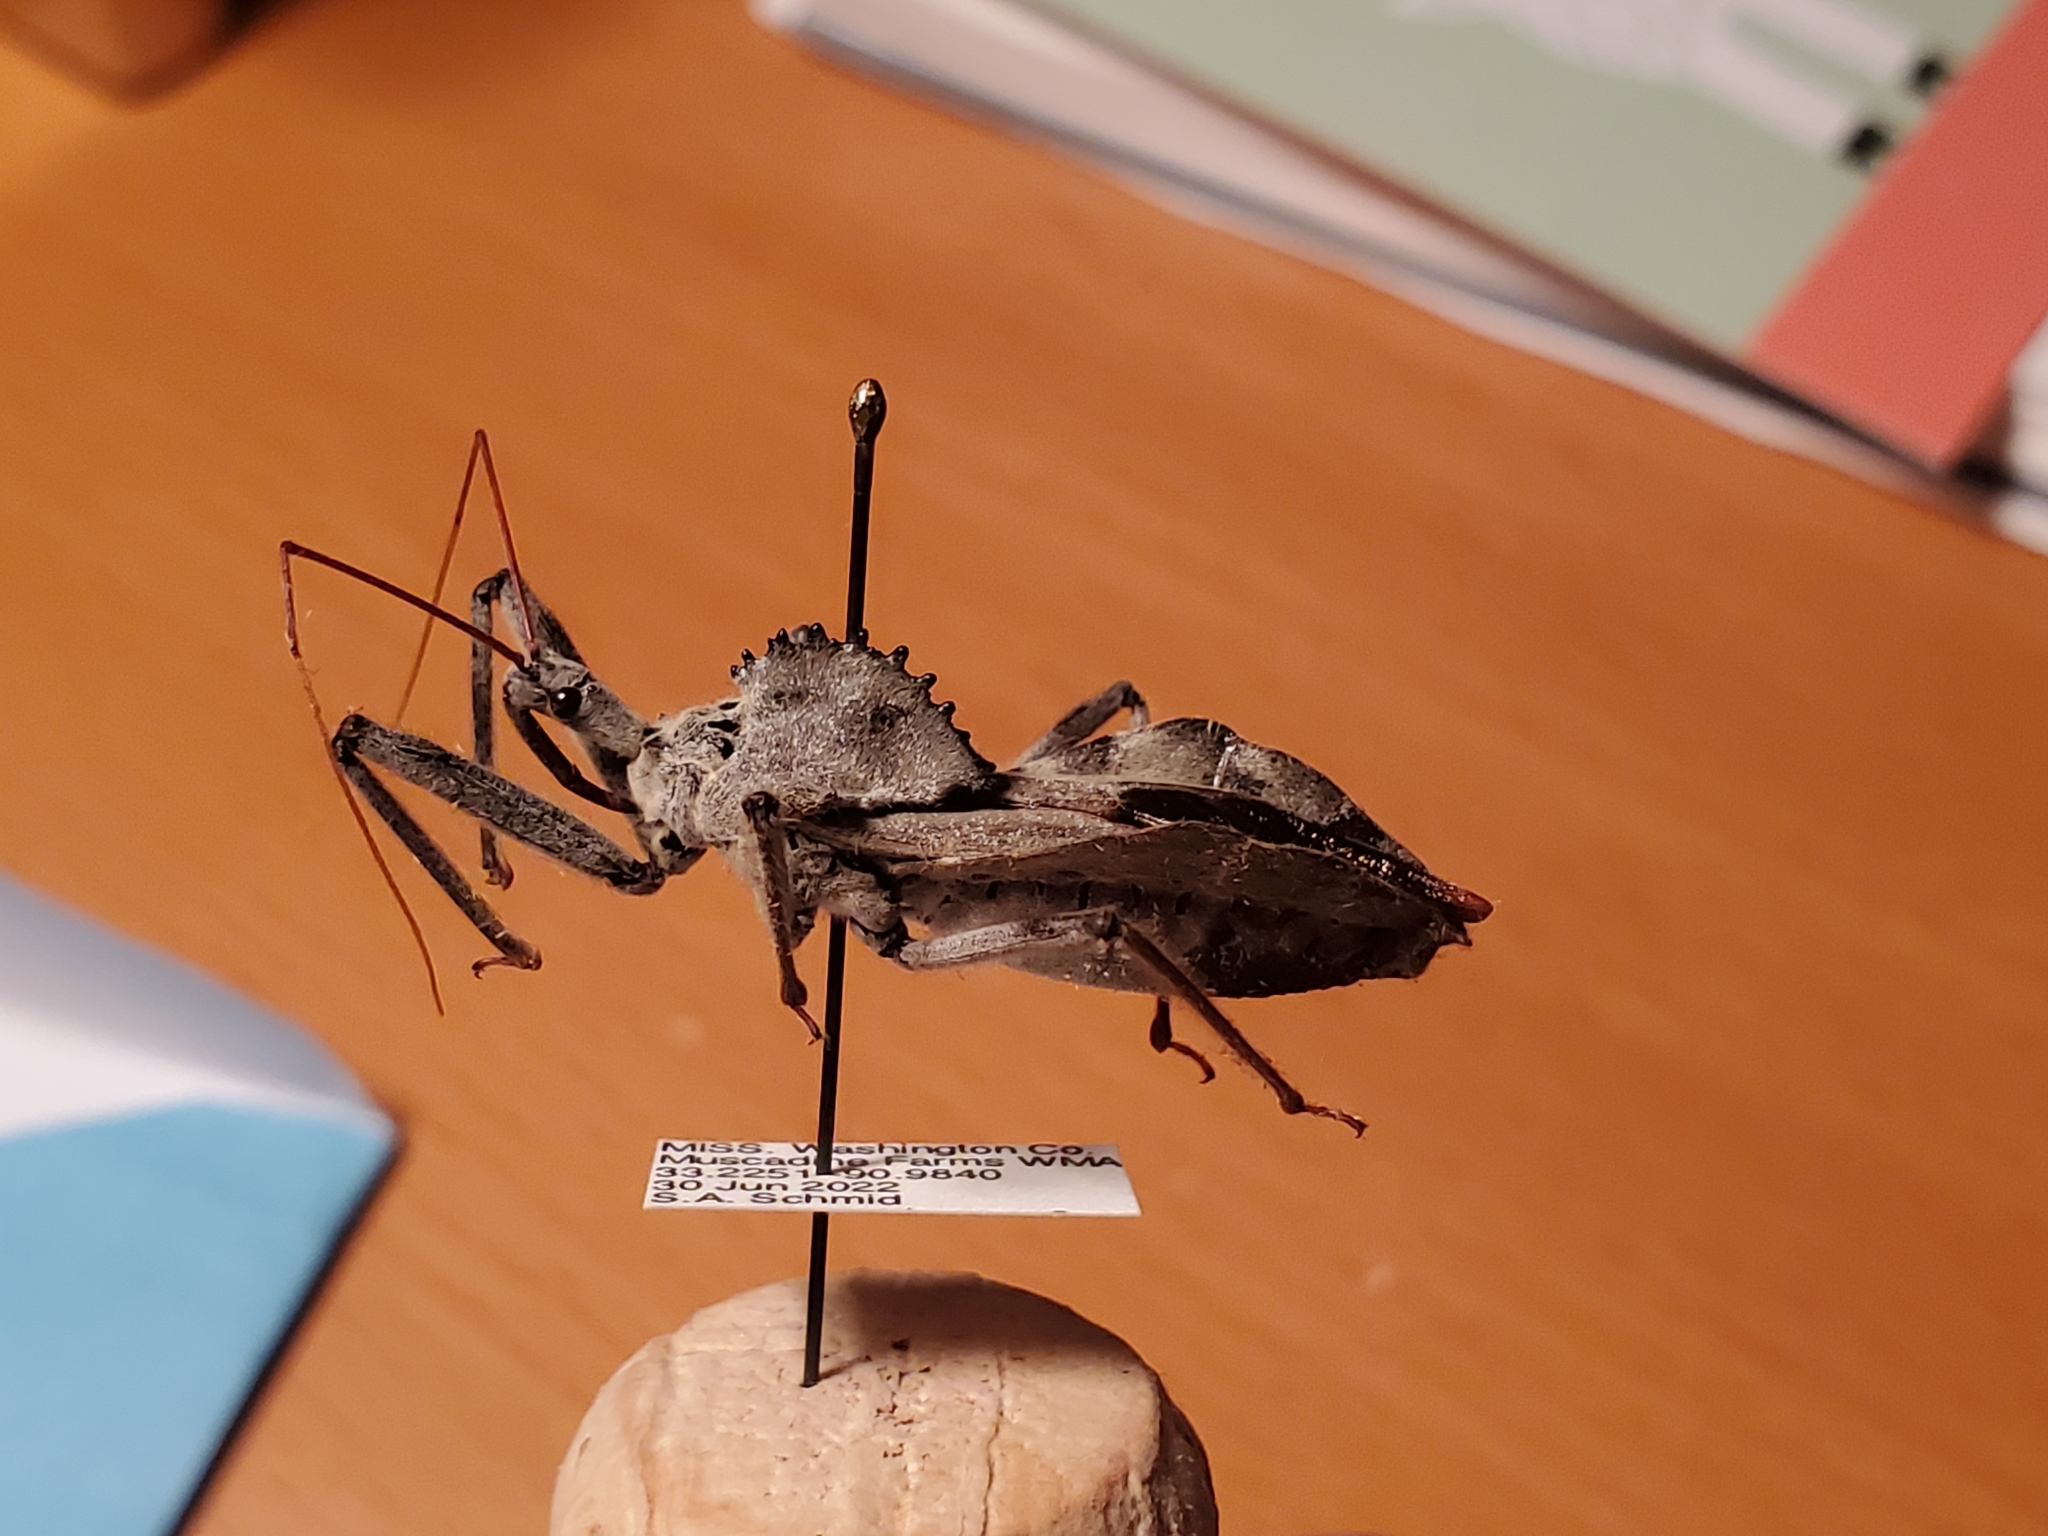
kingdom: Animalia
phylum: Arthropoda
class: Insecta
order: Hemiptera
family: Reduviidae
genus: Arilus
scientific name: Arilus cristatus
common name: North american wheel bug
